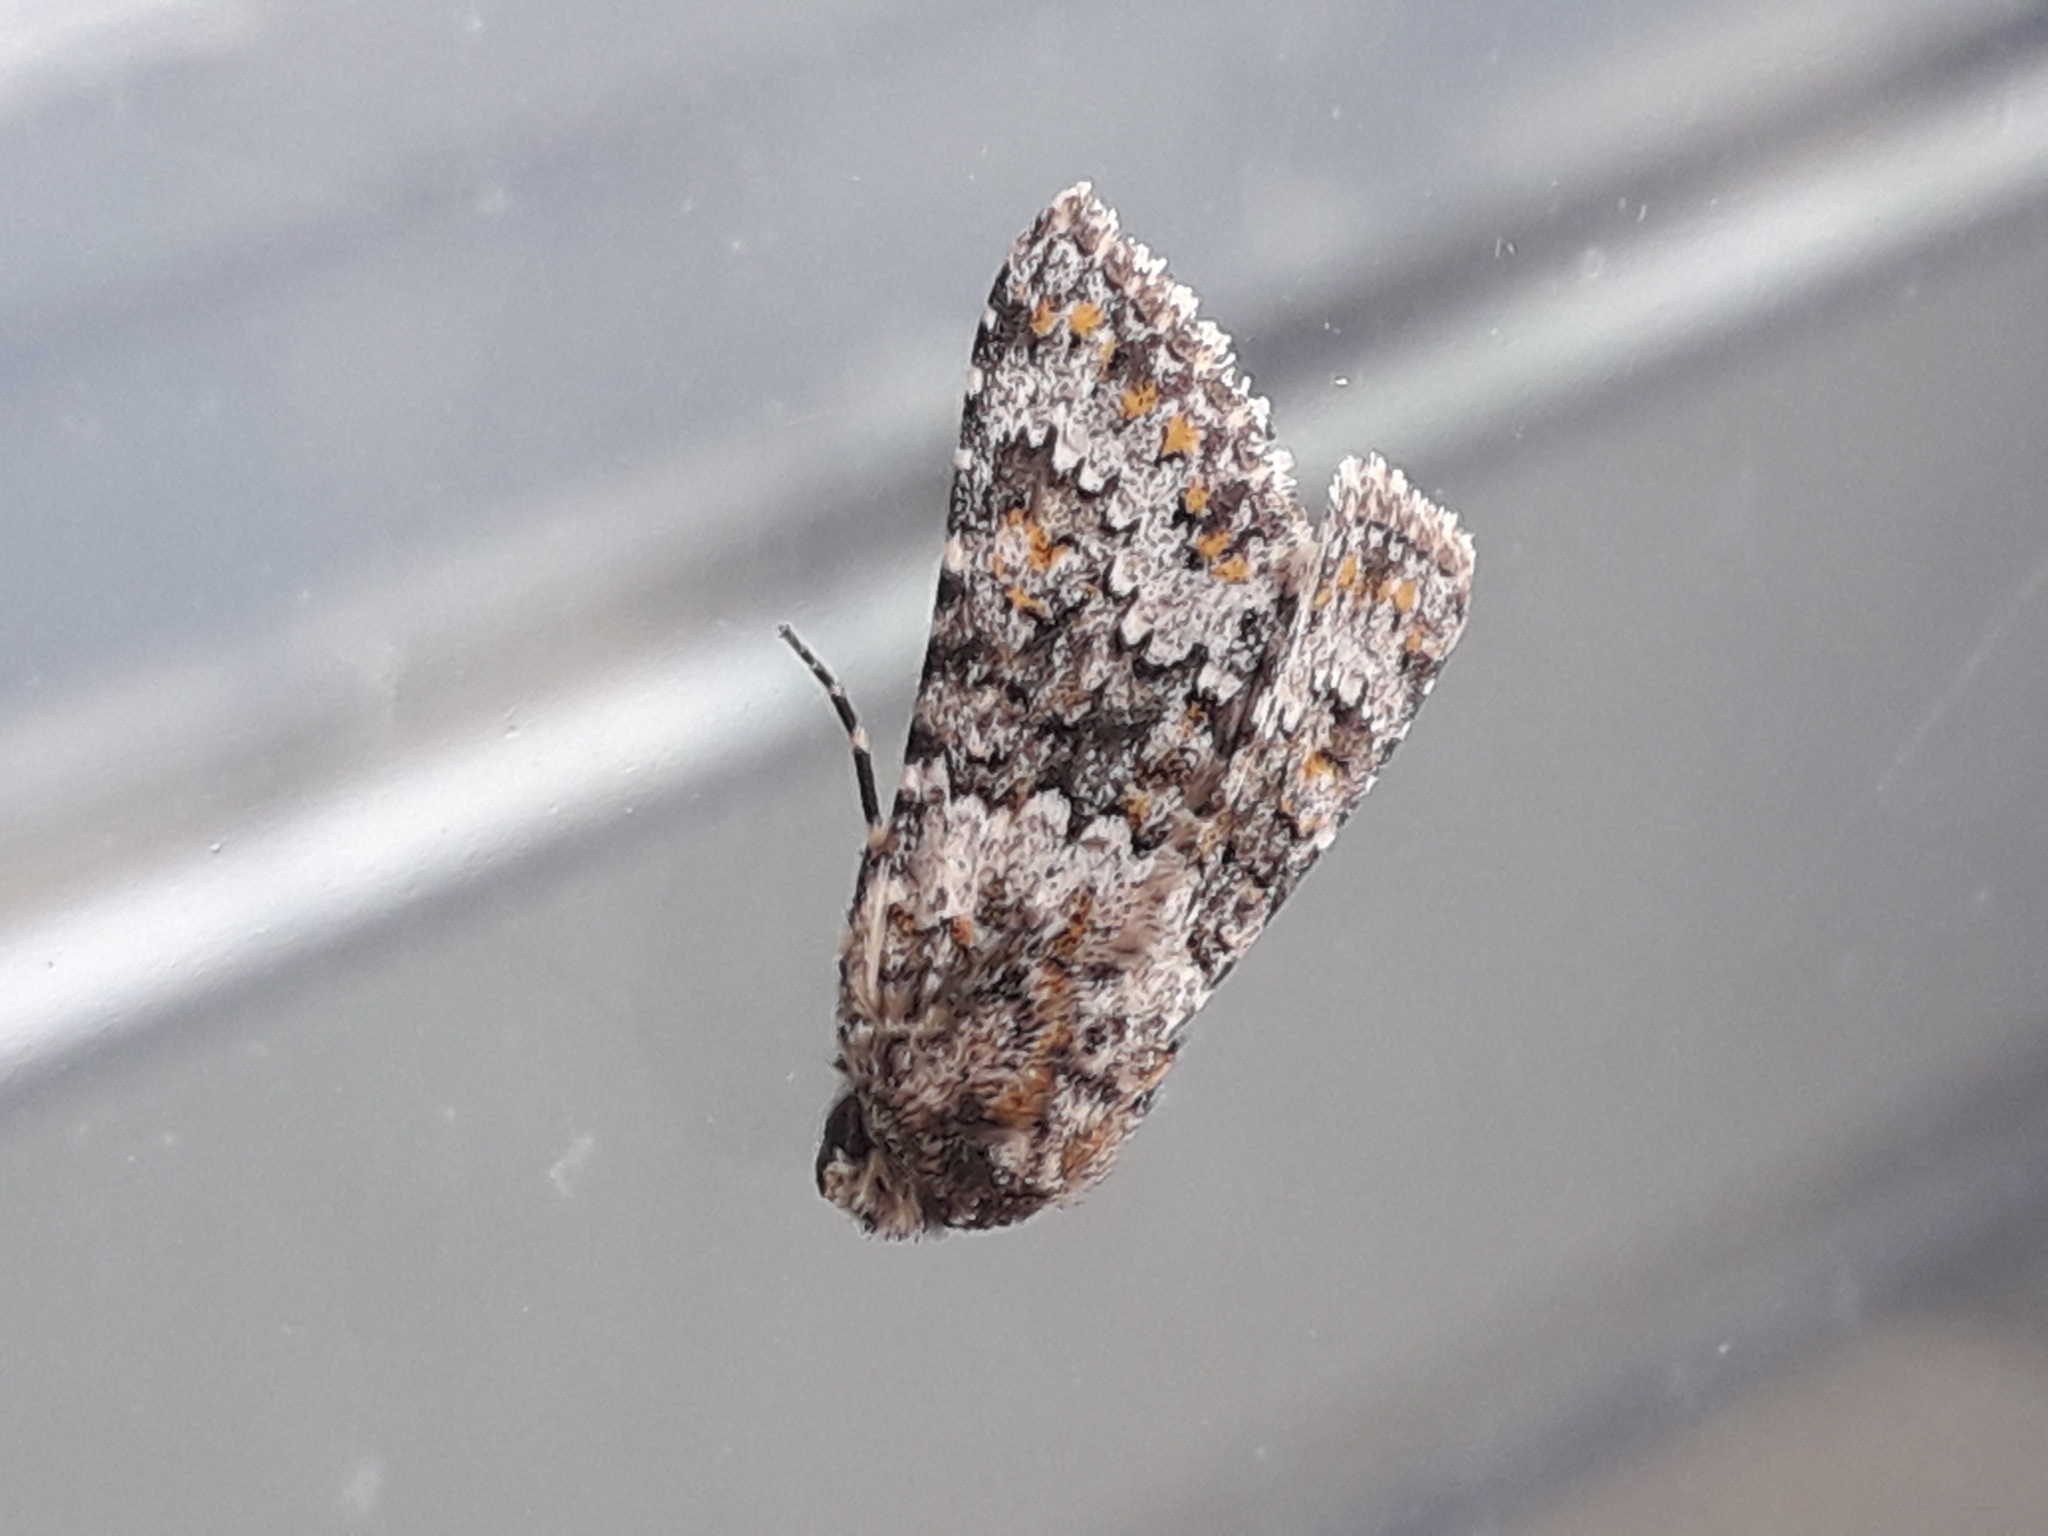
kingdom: Animalia
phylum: Arthropoda
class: Insecta
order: Lepidoptera
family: Noctuidae
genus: Hecatera
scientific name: Hecatera dysodea
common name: Small ranunculus
